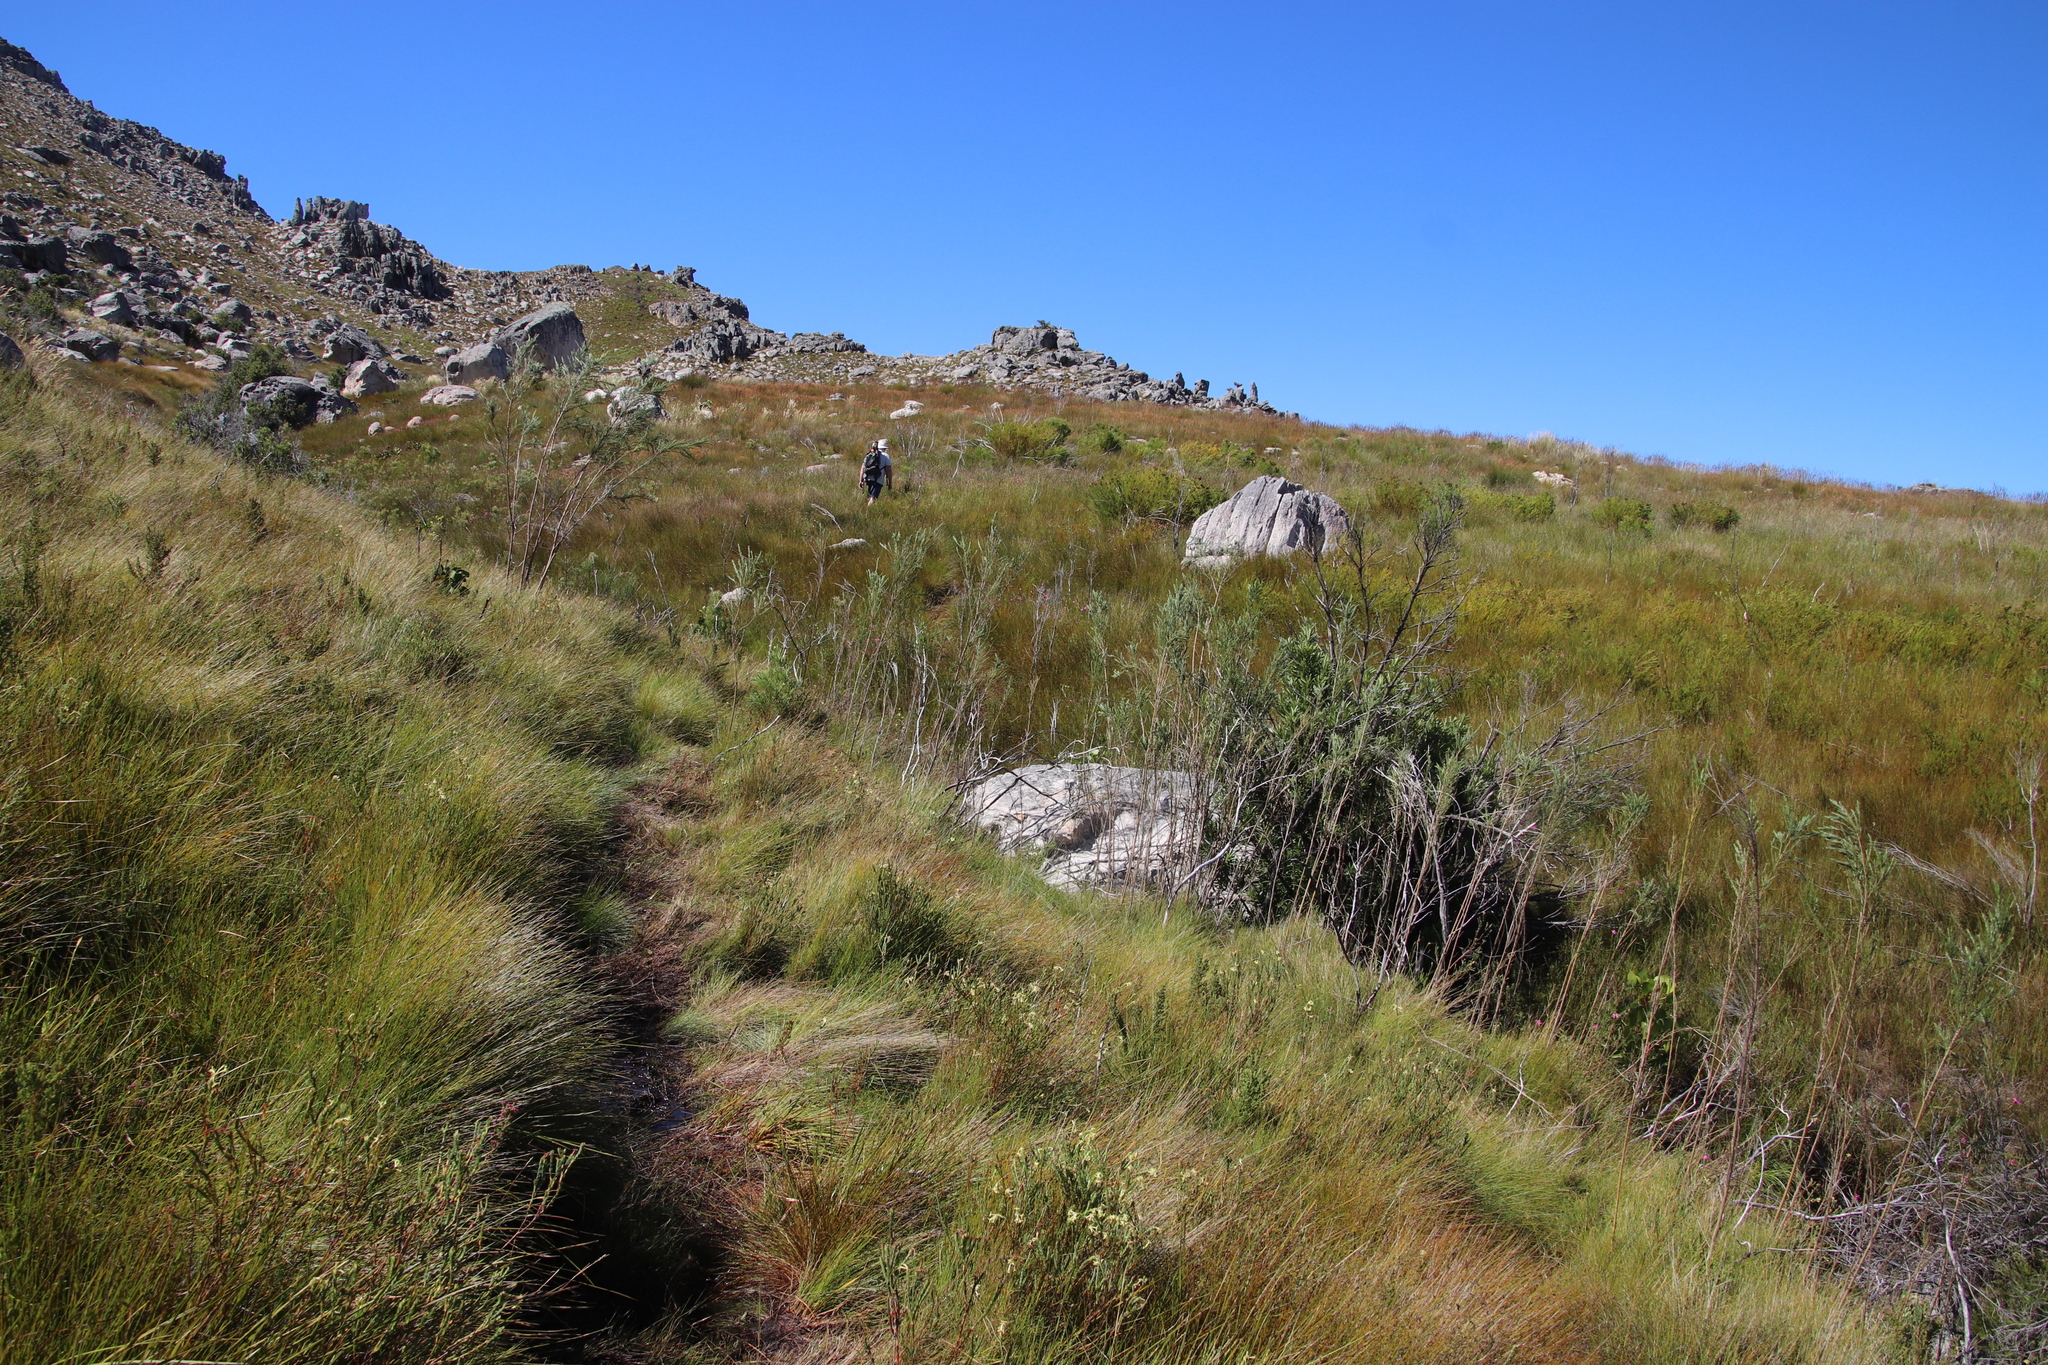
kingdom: Plantae
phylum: Tracheophyta
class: Magnoliopsida
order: Fabales
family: Fabaceae
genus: Psoralea
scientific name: Psoralea fleta
